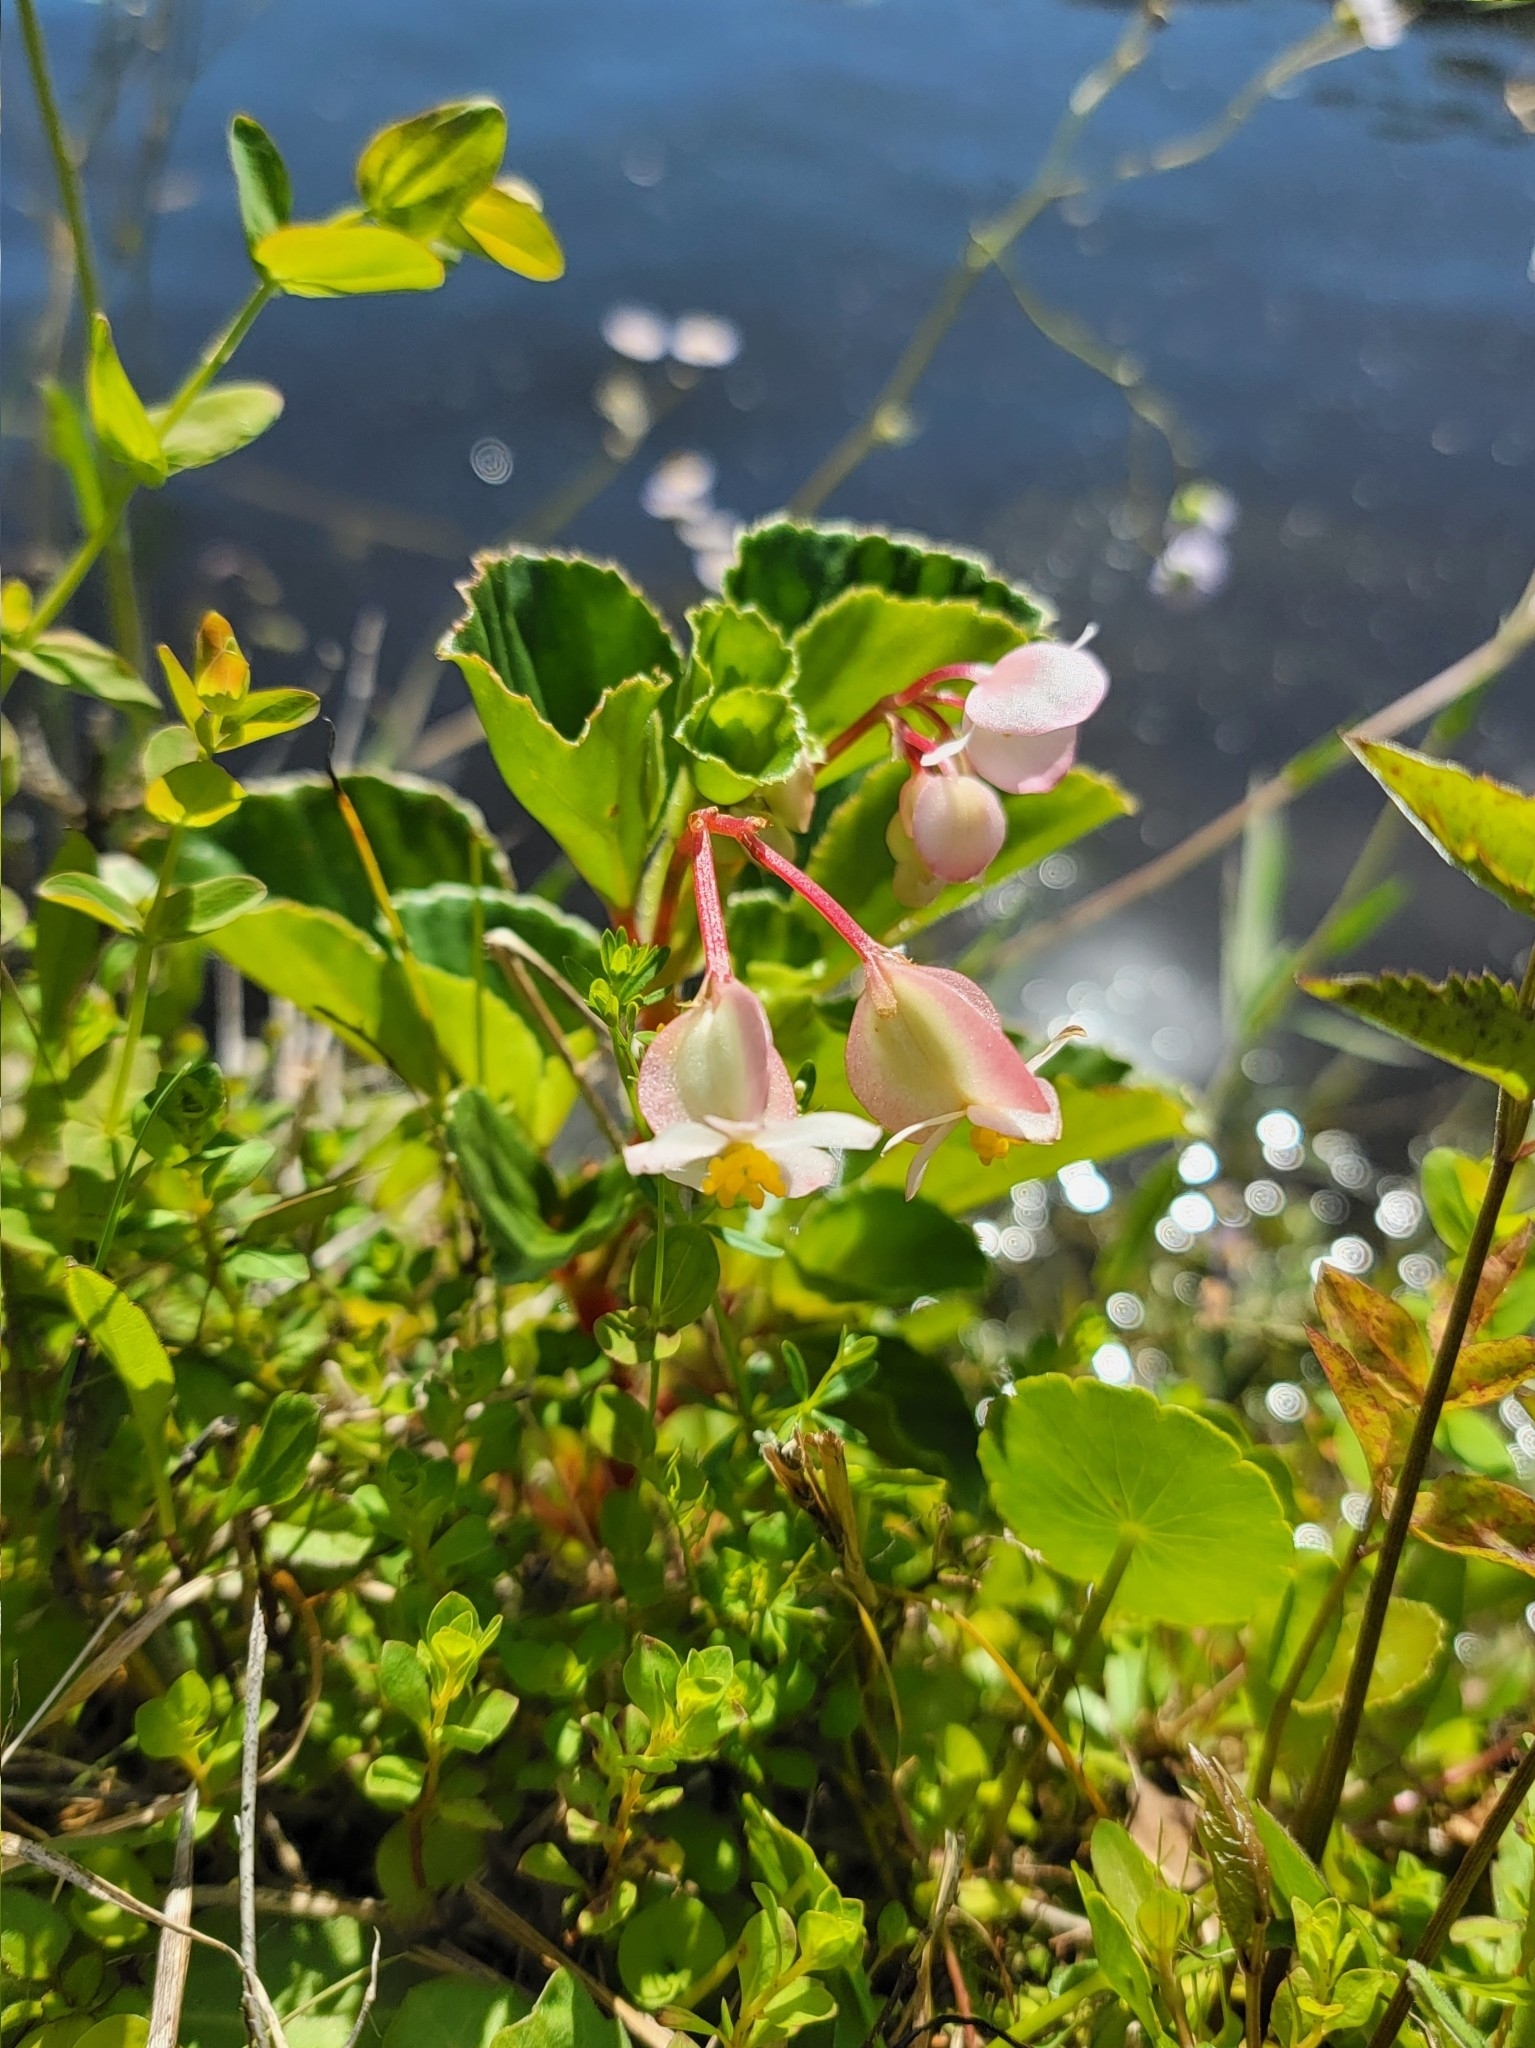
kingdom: Plantae
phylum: Tracheophyta
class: Magnoliopsida
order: Cucurbitales
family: Begoniaceae
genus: Begonia
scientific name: Begonia cucullata
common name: Clubbed begonia
